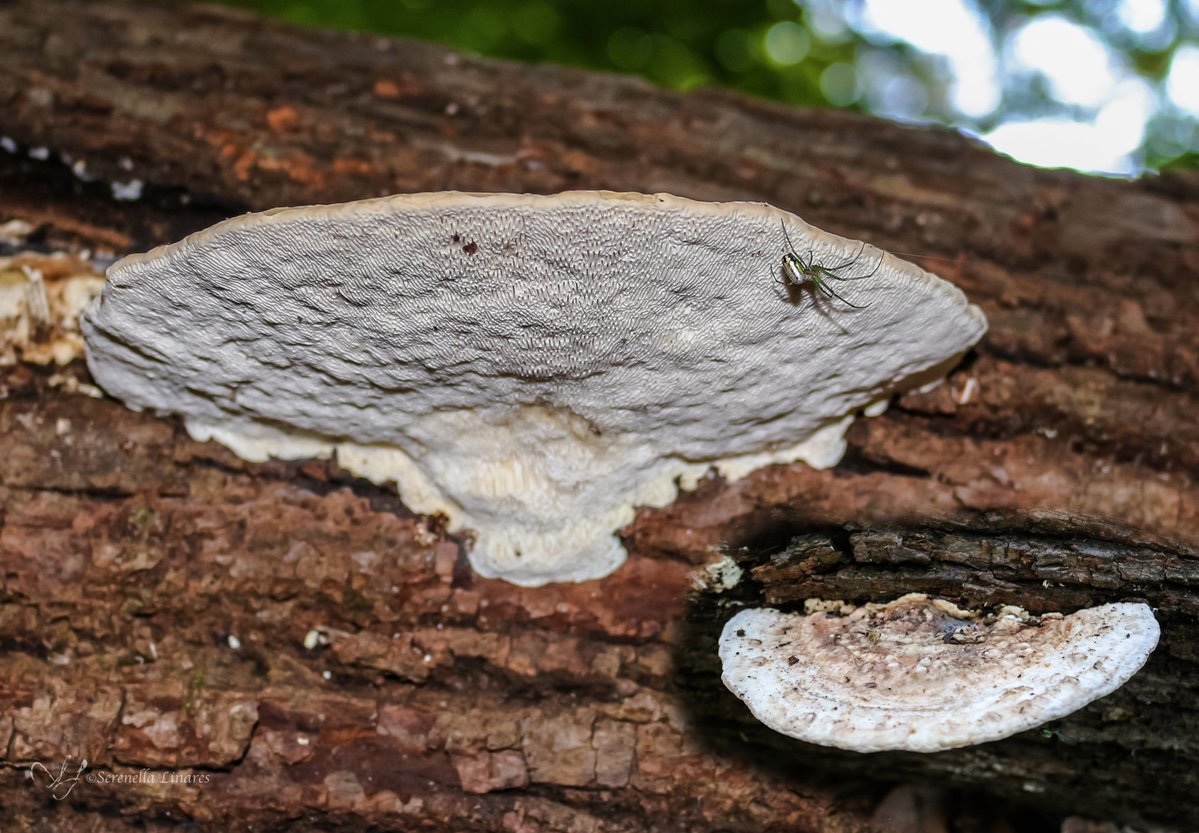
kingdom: Fungi
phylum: Basidiomycota
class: Agaricomycetes
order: Polyporales
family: Polyporaceae
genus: Trametes
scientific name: Trametes gibbosa
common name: Lumpy bracket
